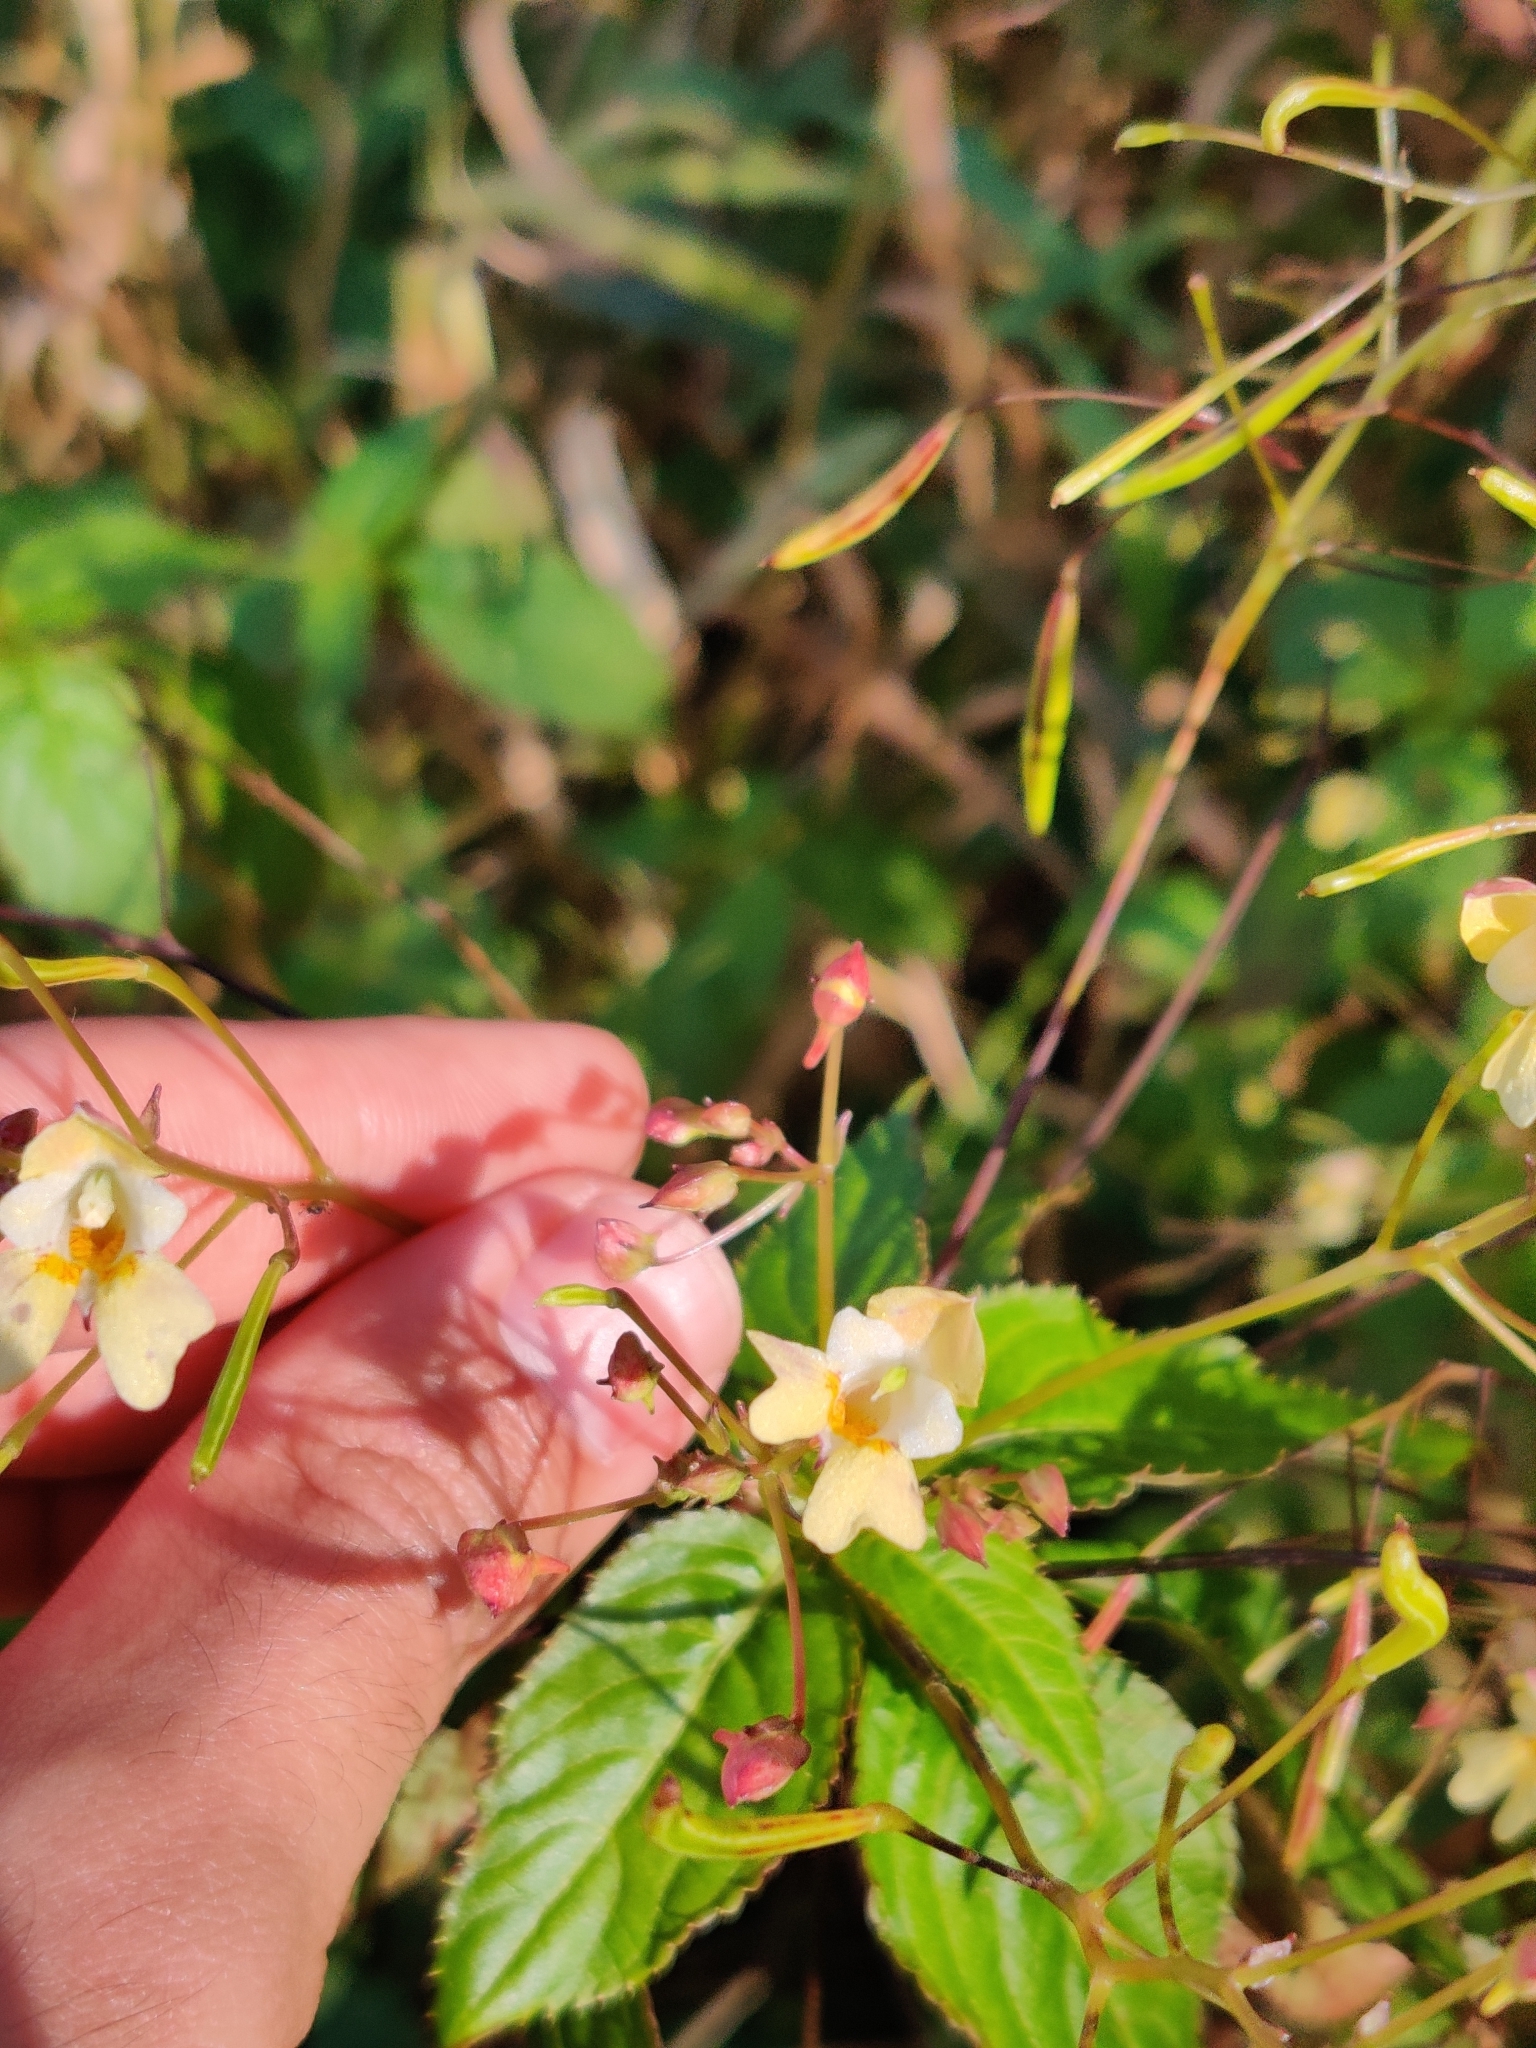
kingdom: Plantae
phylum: Tracheophyta
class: Magnoliopsida
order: Ericales
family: Balsaminaceae
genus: Impatiens
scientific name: Impatiens parviflora
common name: Small balsam
